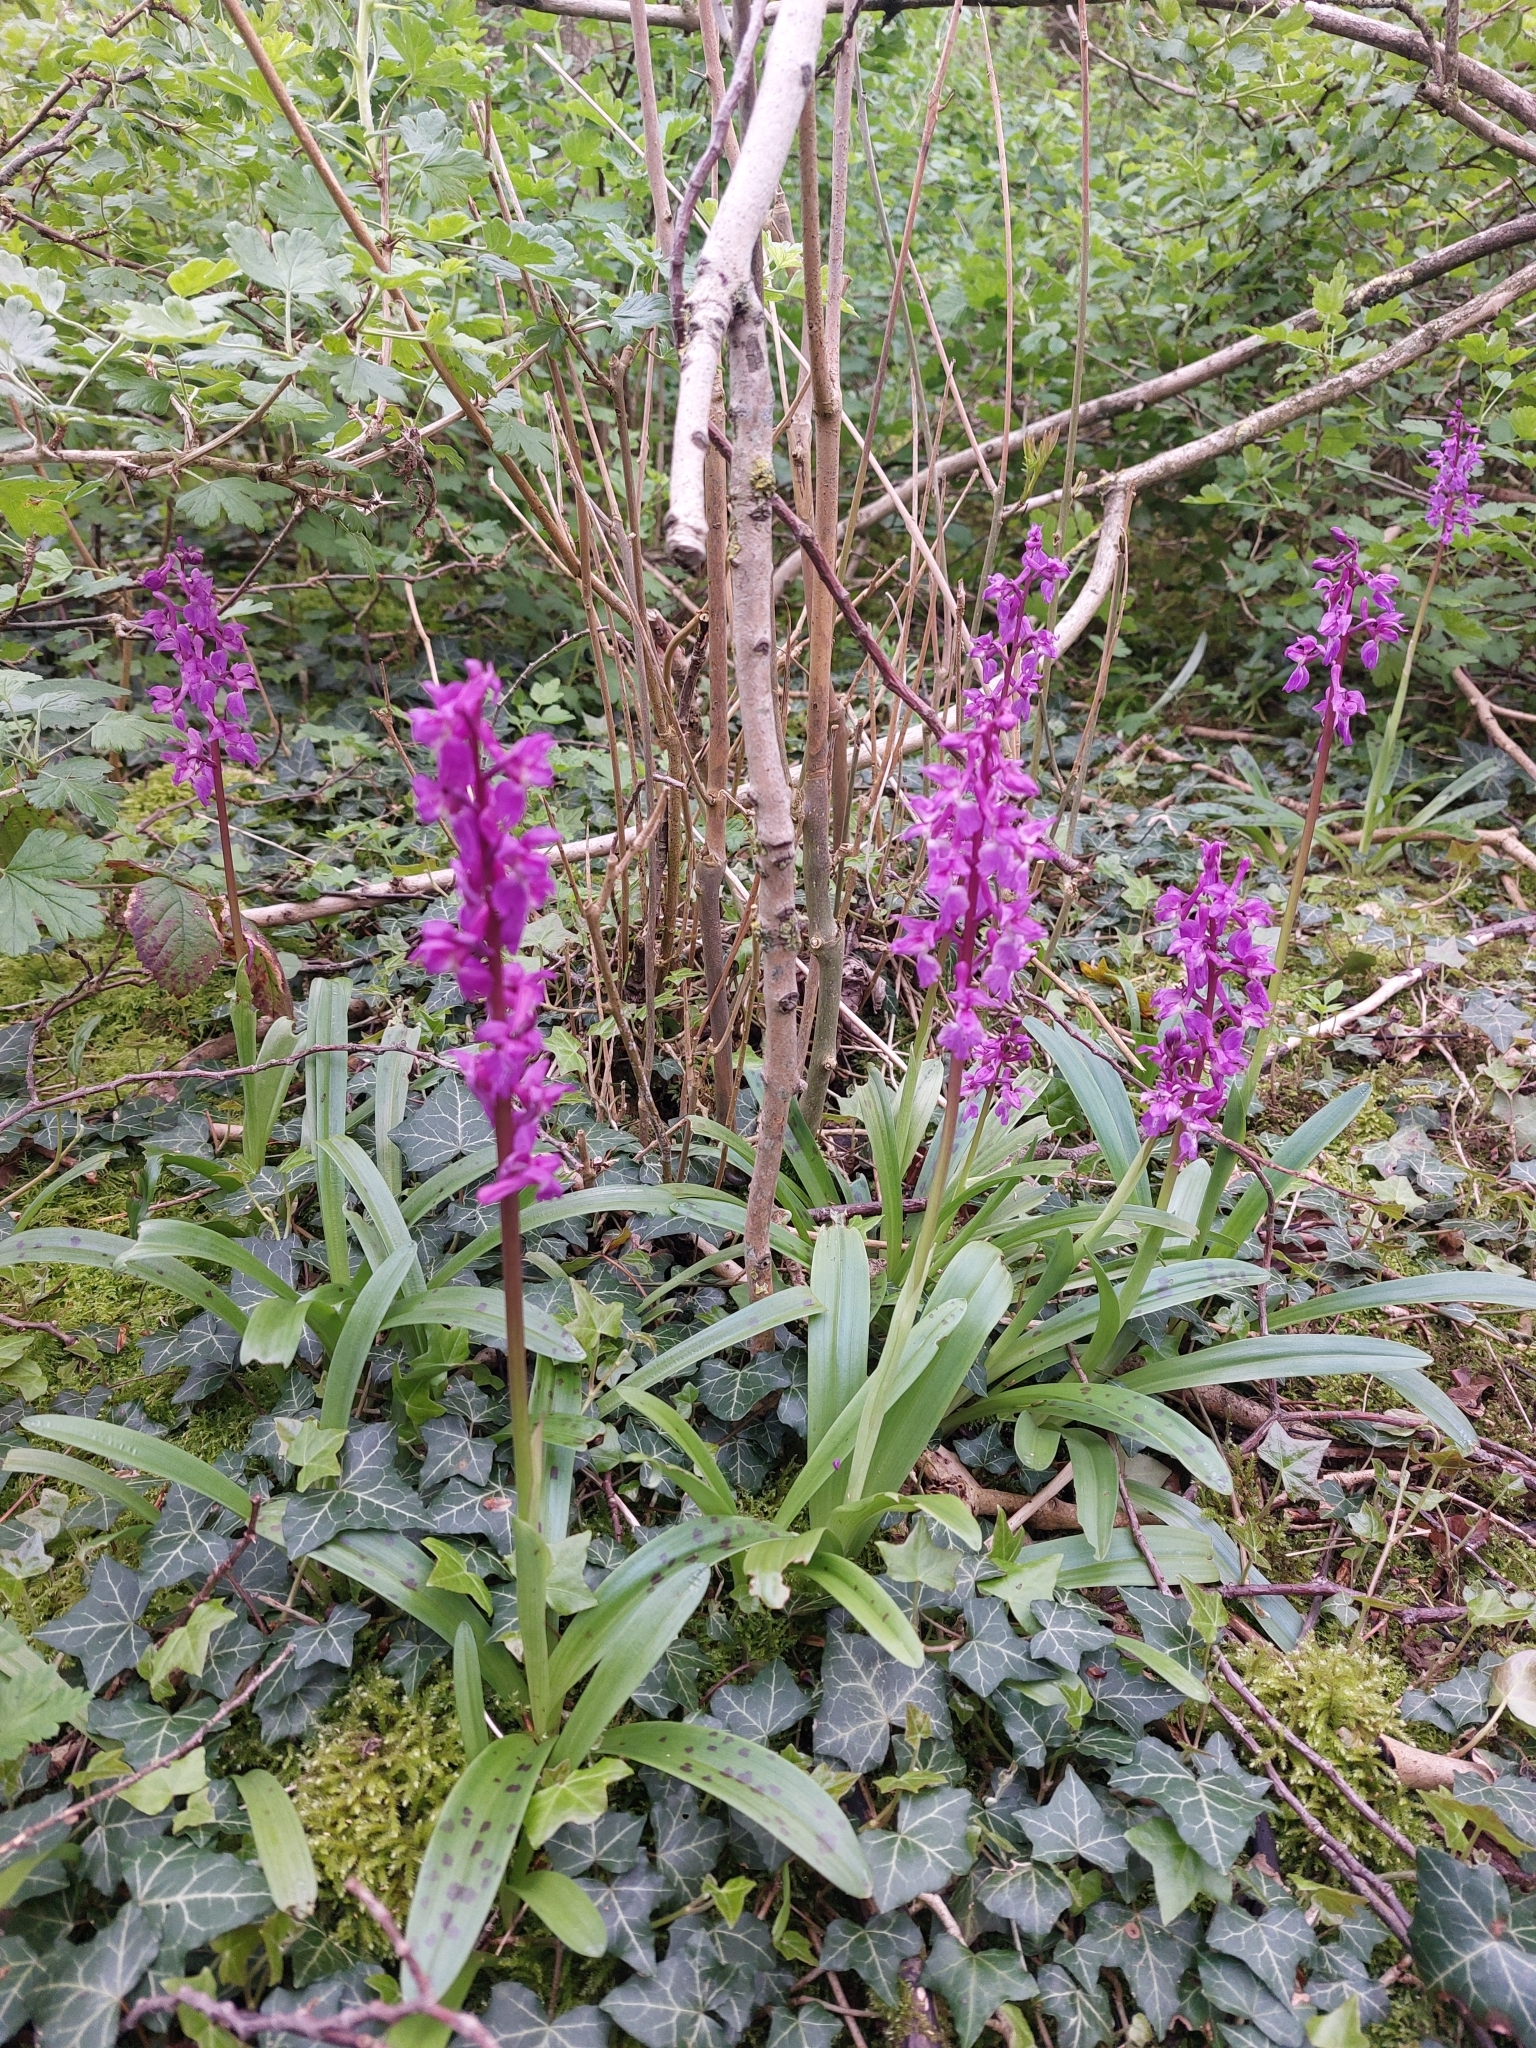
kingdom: Plantae
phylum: Tracheophyta
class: Liliopsida
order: Asparagales
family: Orchidaceae
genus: Orchis
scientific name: Orchis mascula
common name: Early-purple orchid
